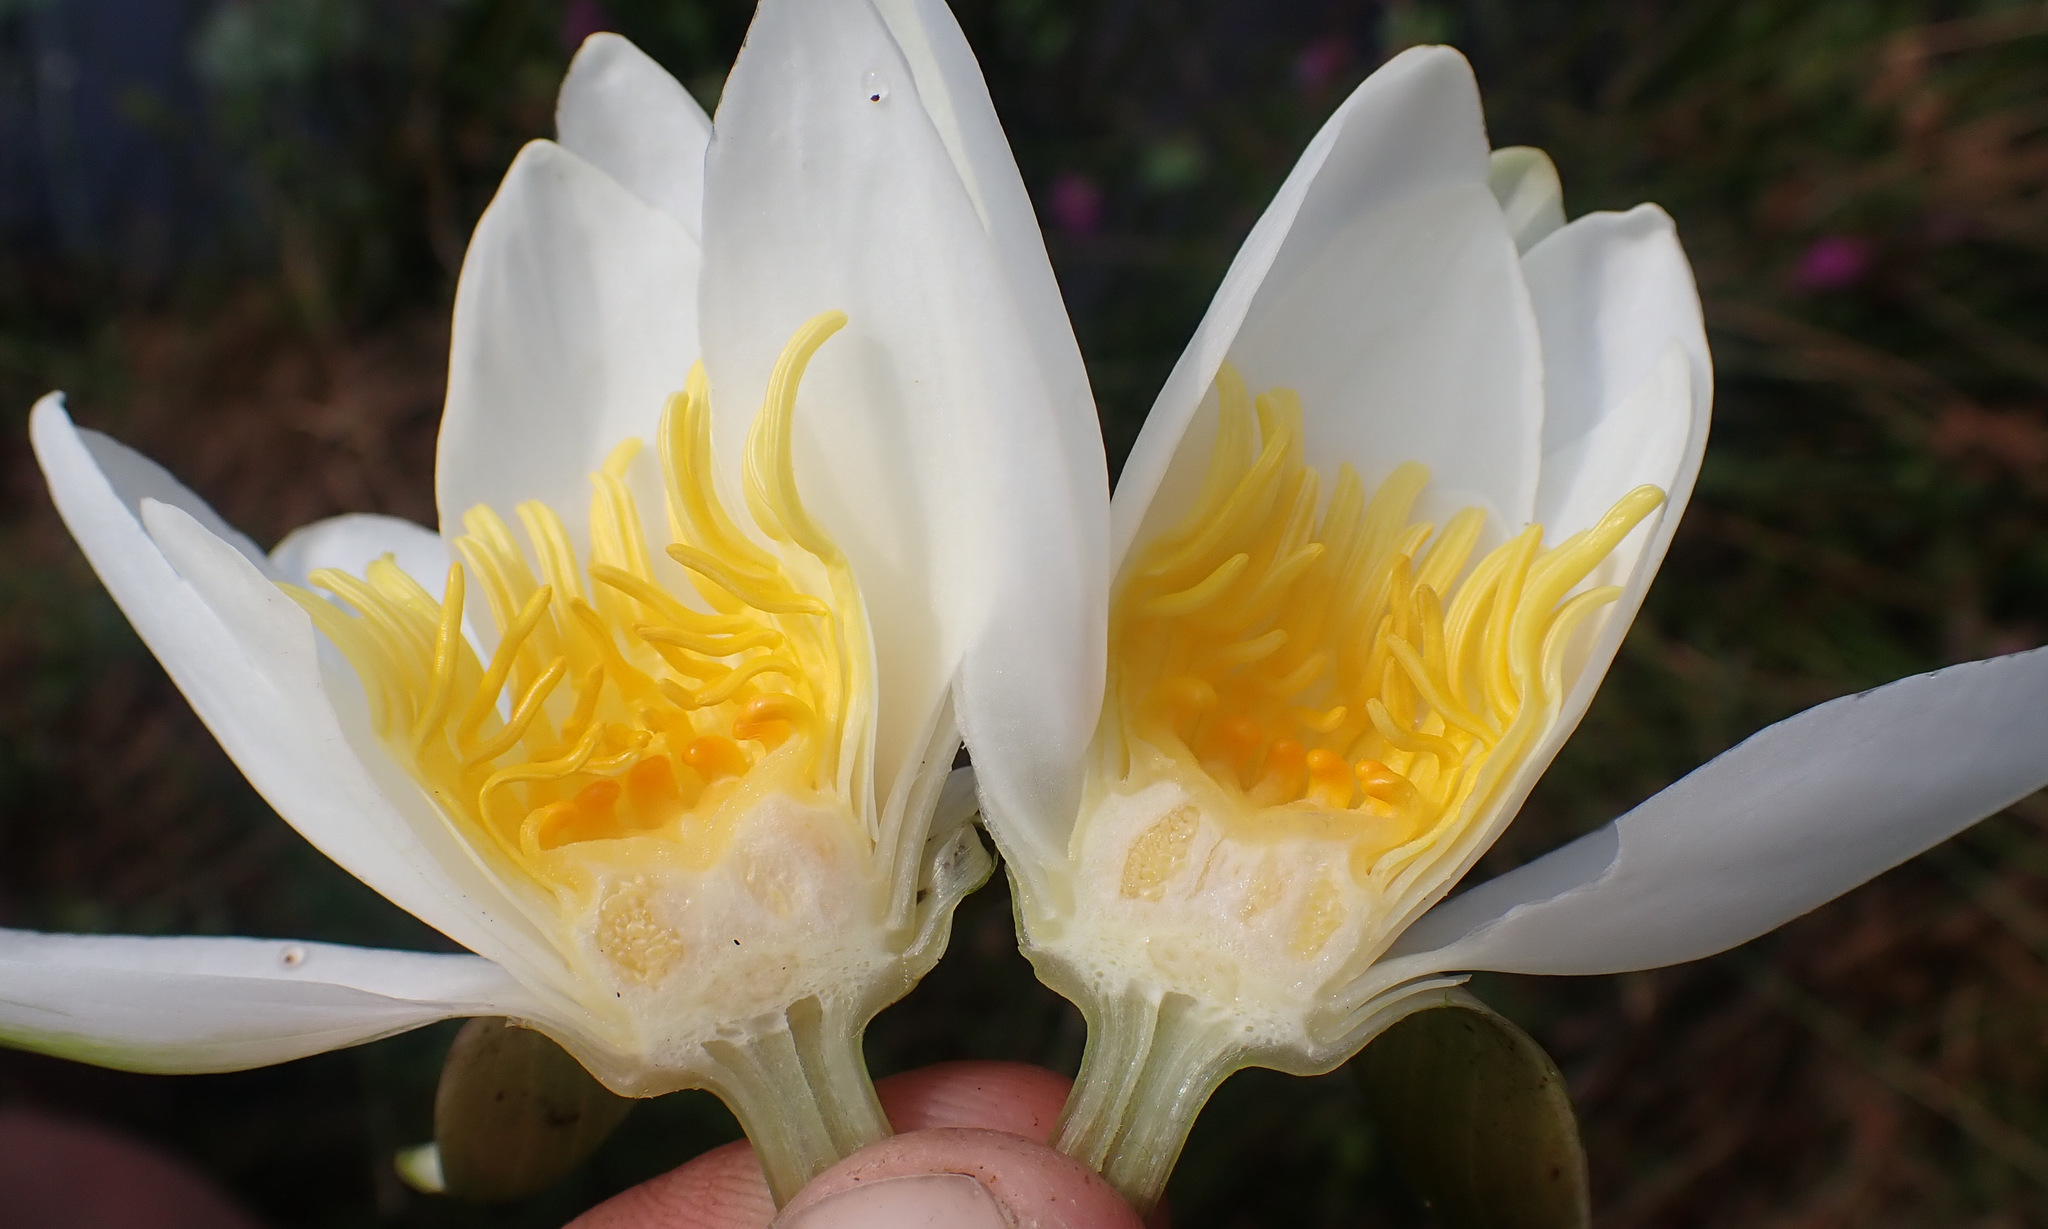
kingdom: Plantae
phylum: Tracheophyta
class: Magnoliopsida
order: Nymphaeales
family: Nymphaeaceae
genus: Nymphaea
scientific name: Nymphaea alba
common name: White water-lily
